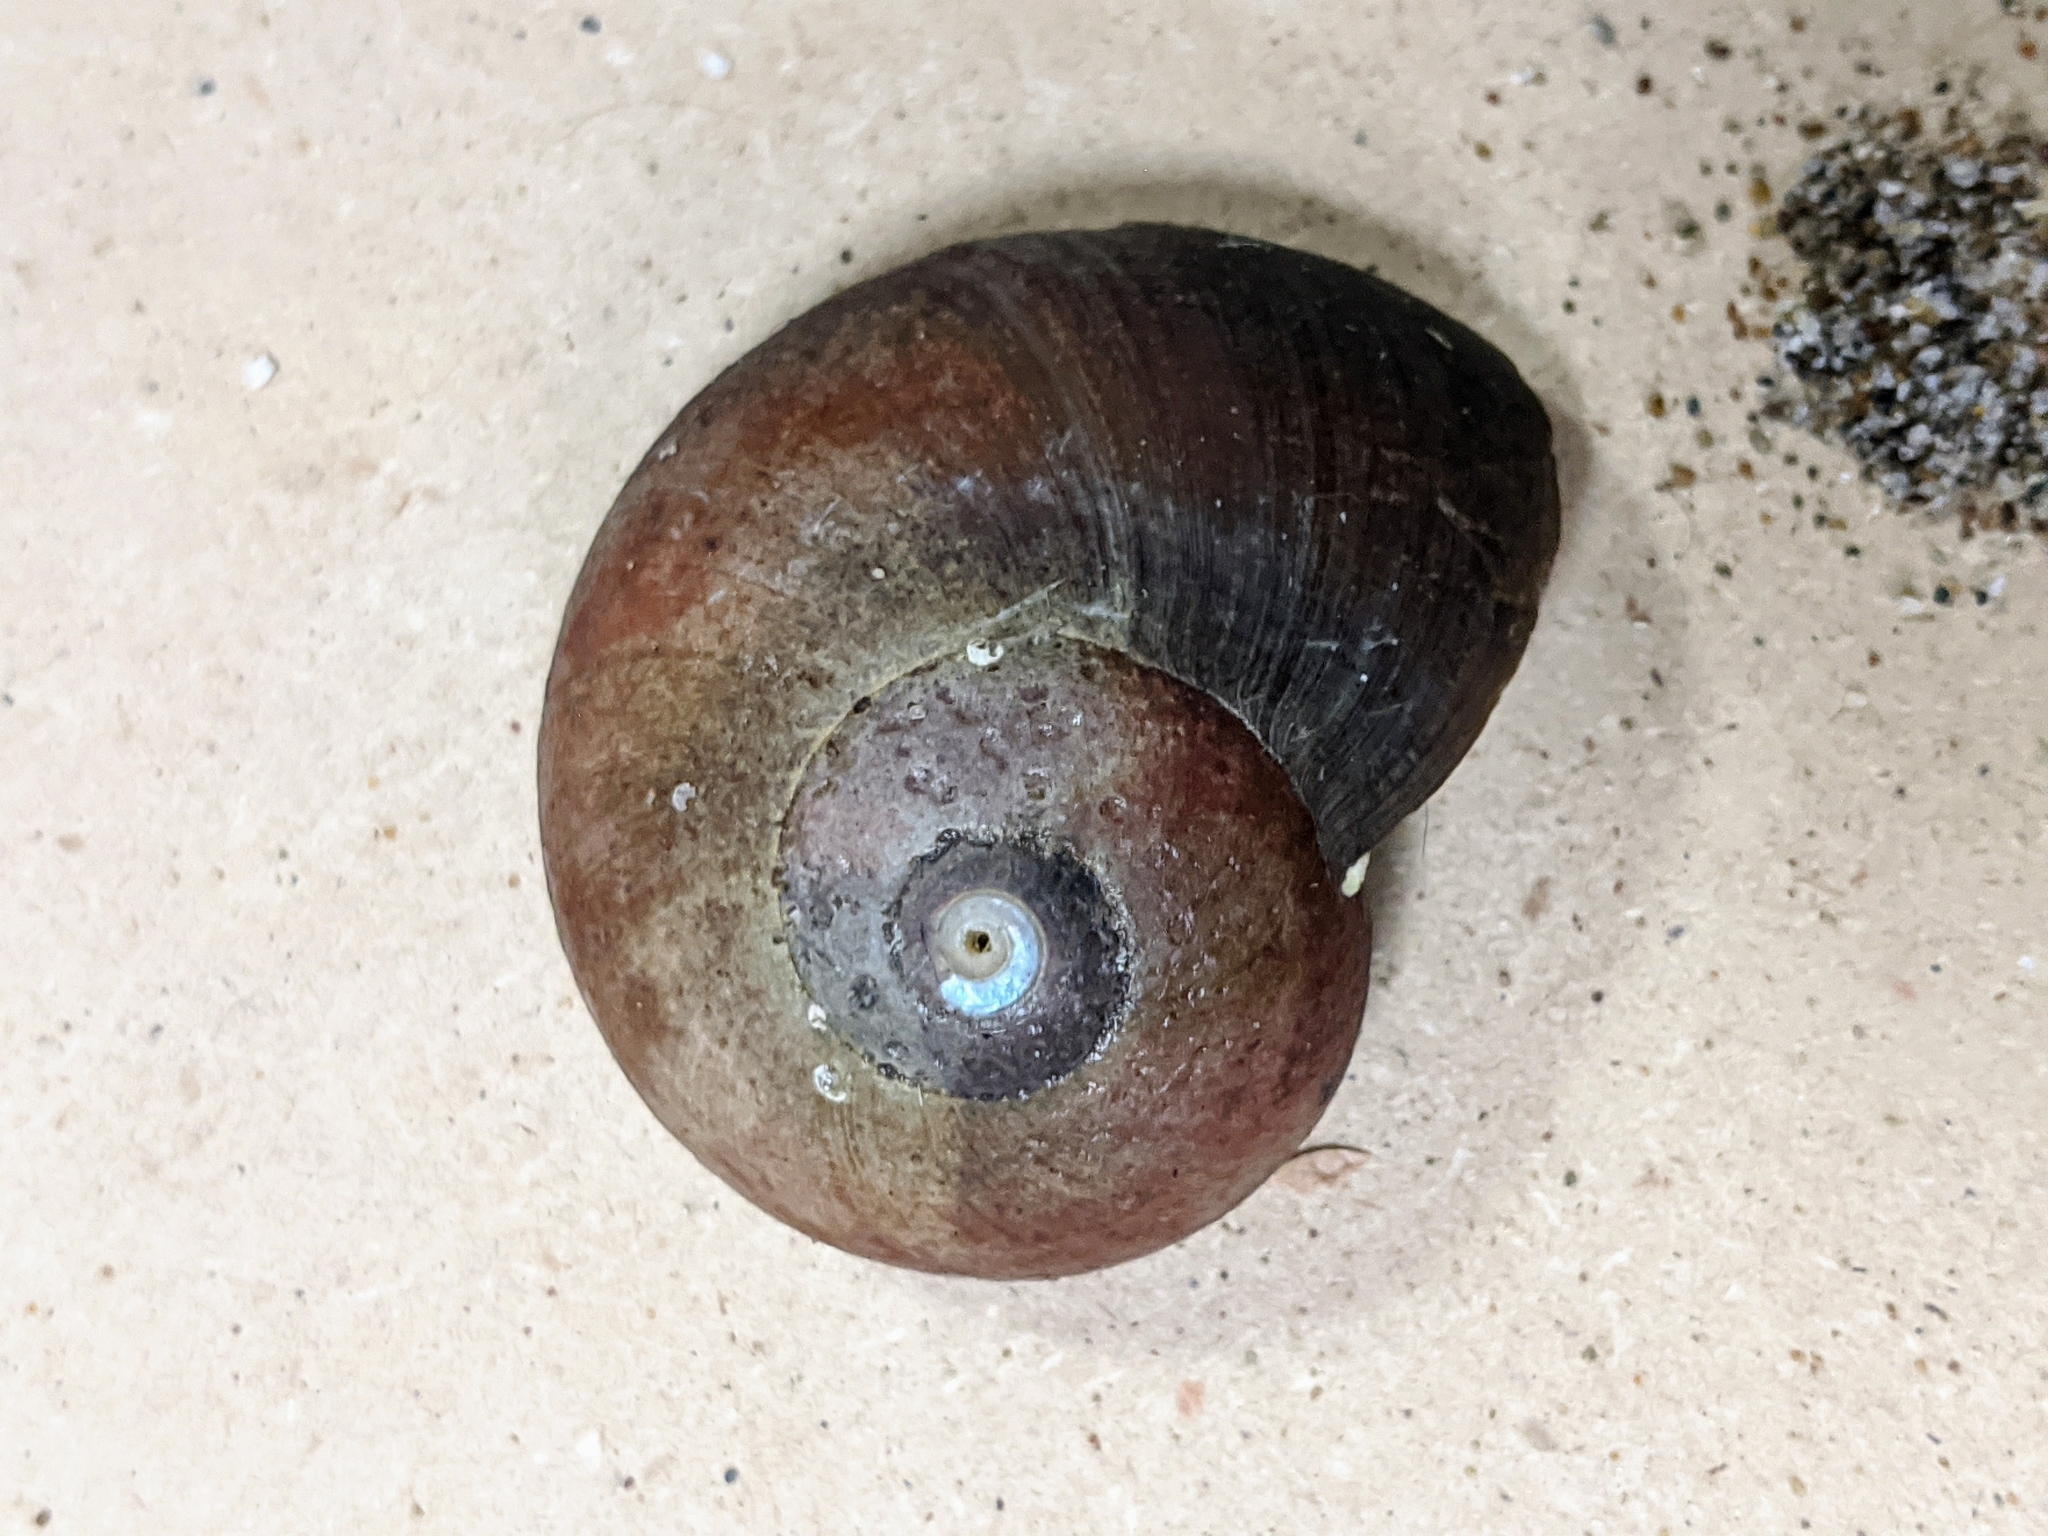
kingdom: Animalia
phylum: Mollusca
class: Gastropoda
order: Trochida
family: Tegulidae
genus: Norrisia
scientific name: Norrisia norrisii
